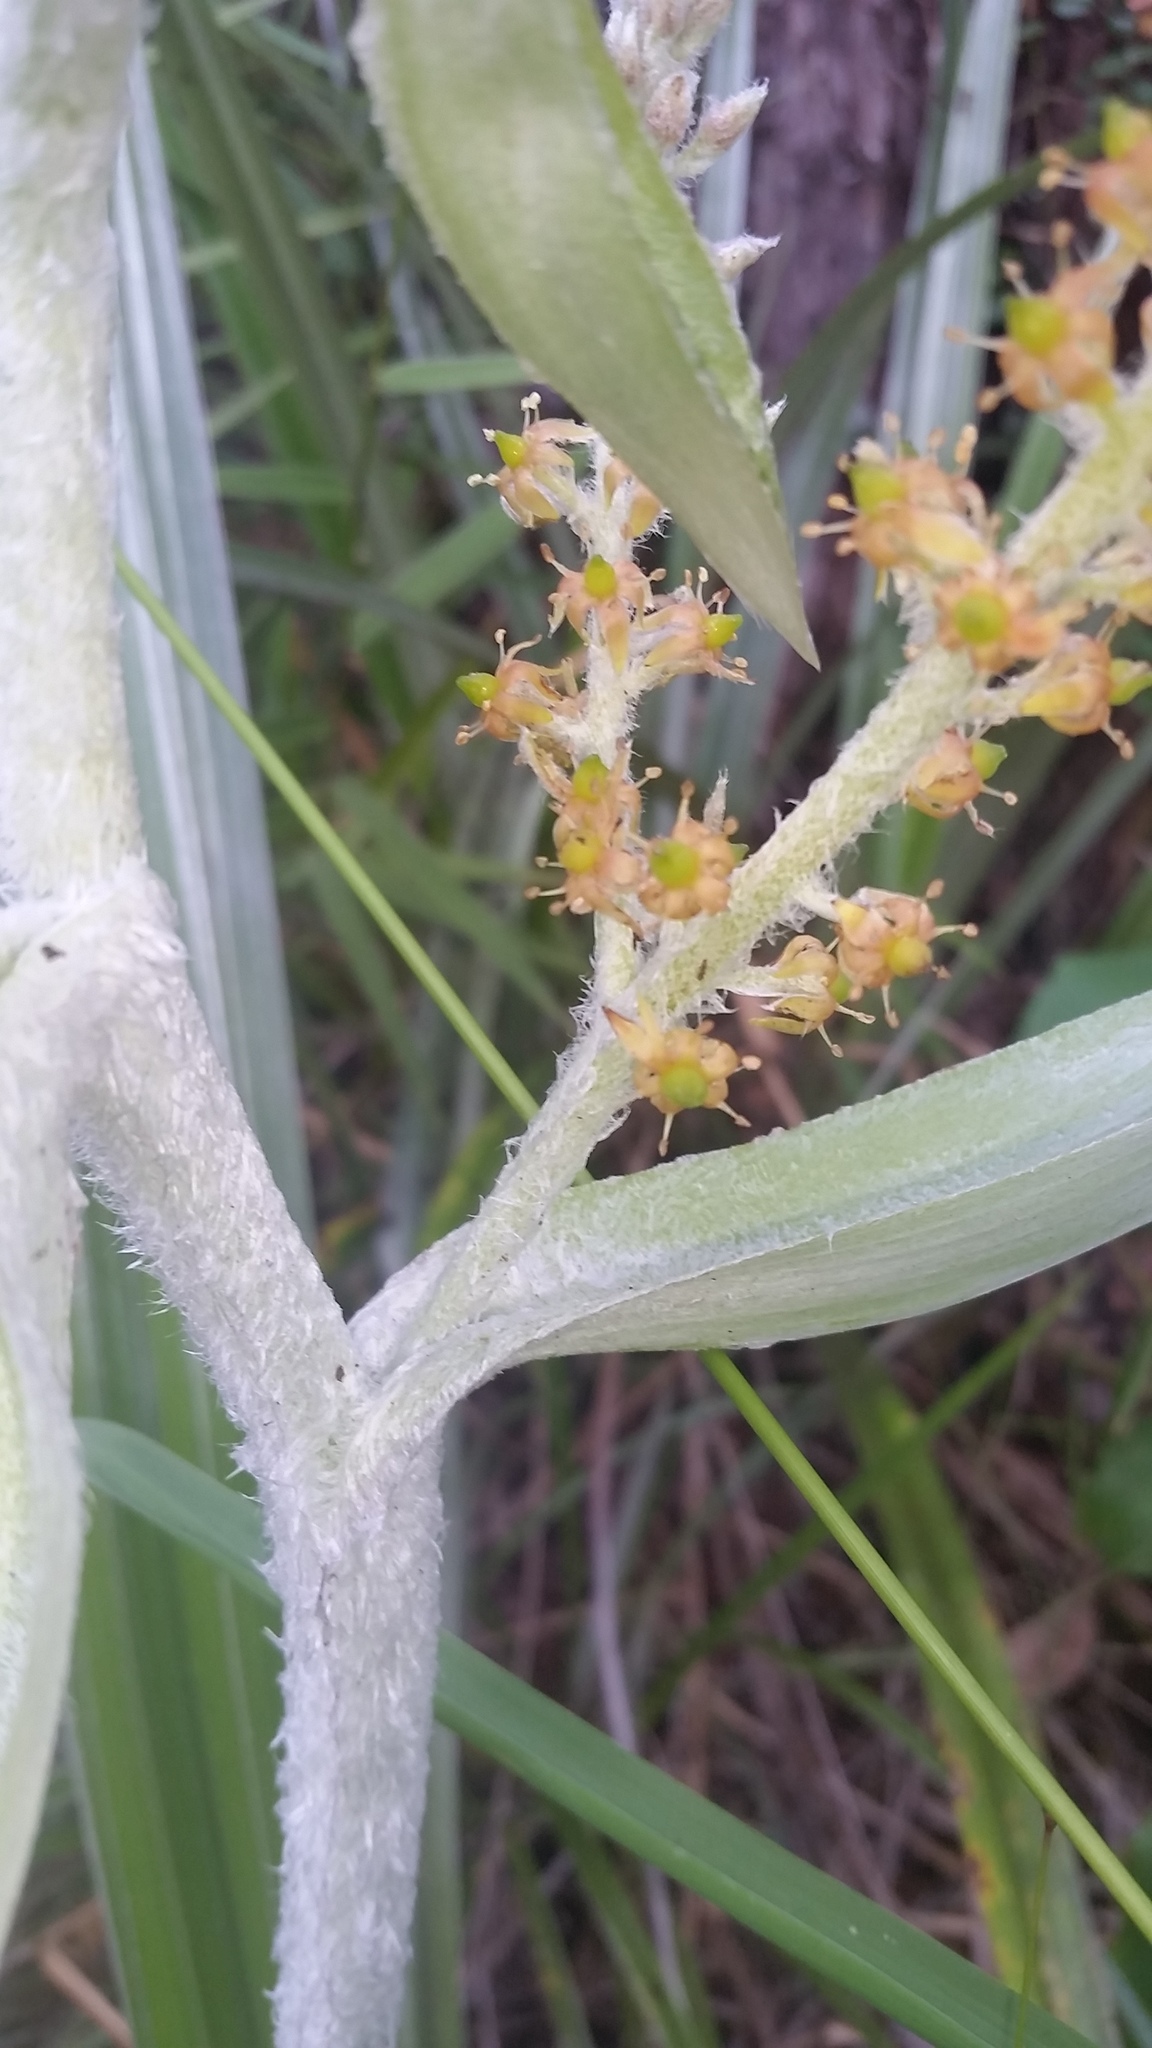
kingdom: Plantae
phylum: Tracheophyta
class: Liliopsida
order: Asparagales
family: Asteliaceae
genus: Astelia
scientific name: Astelia menziesiana
